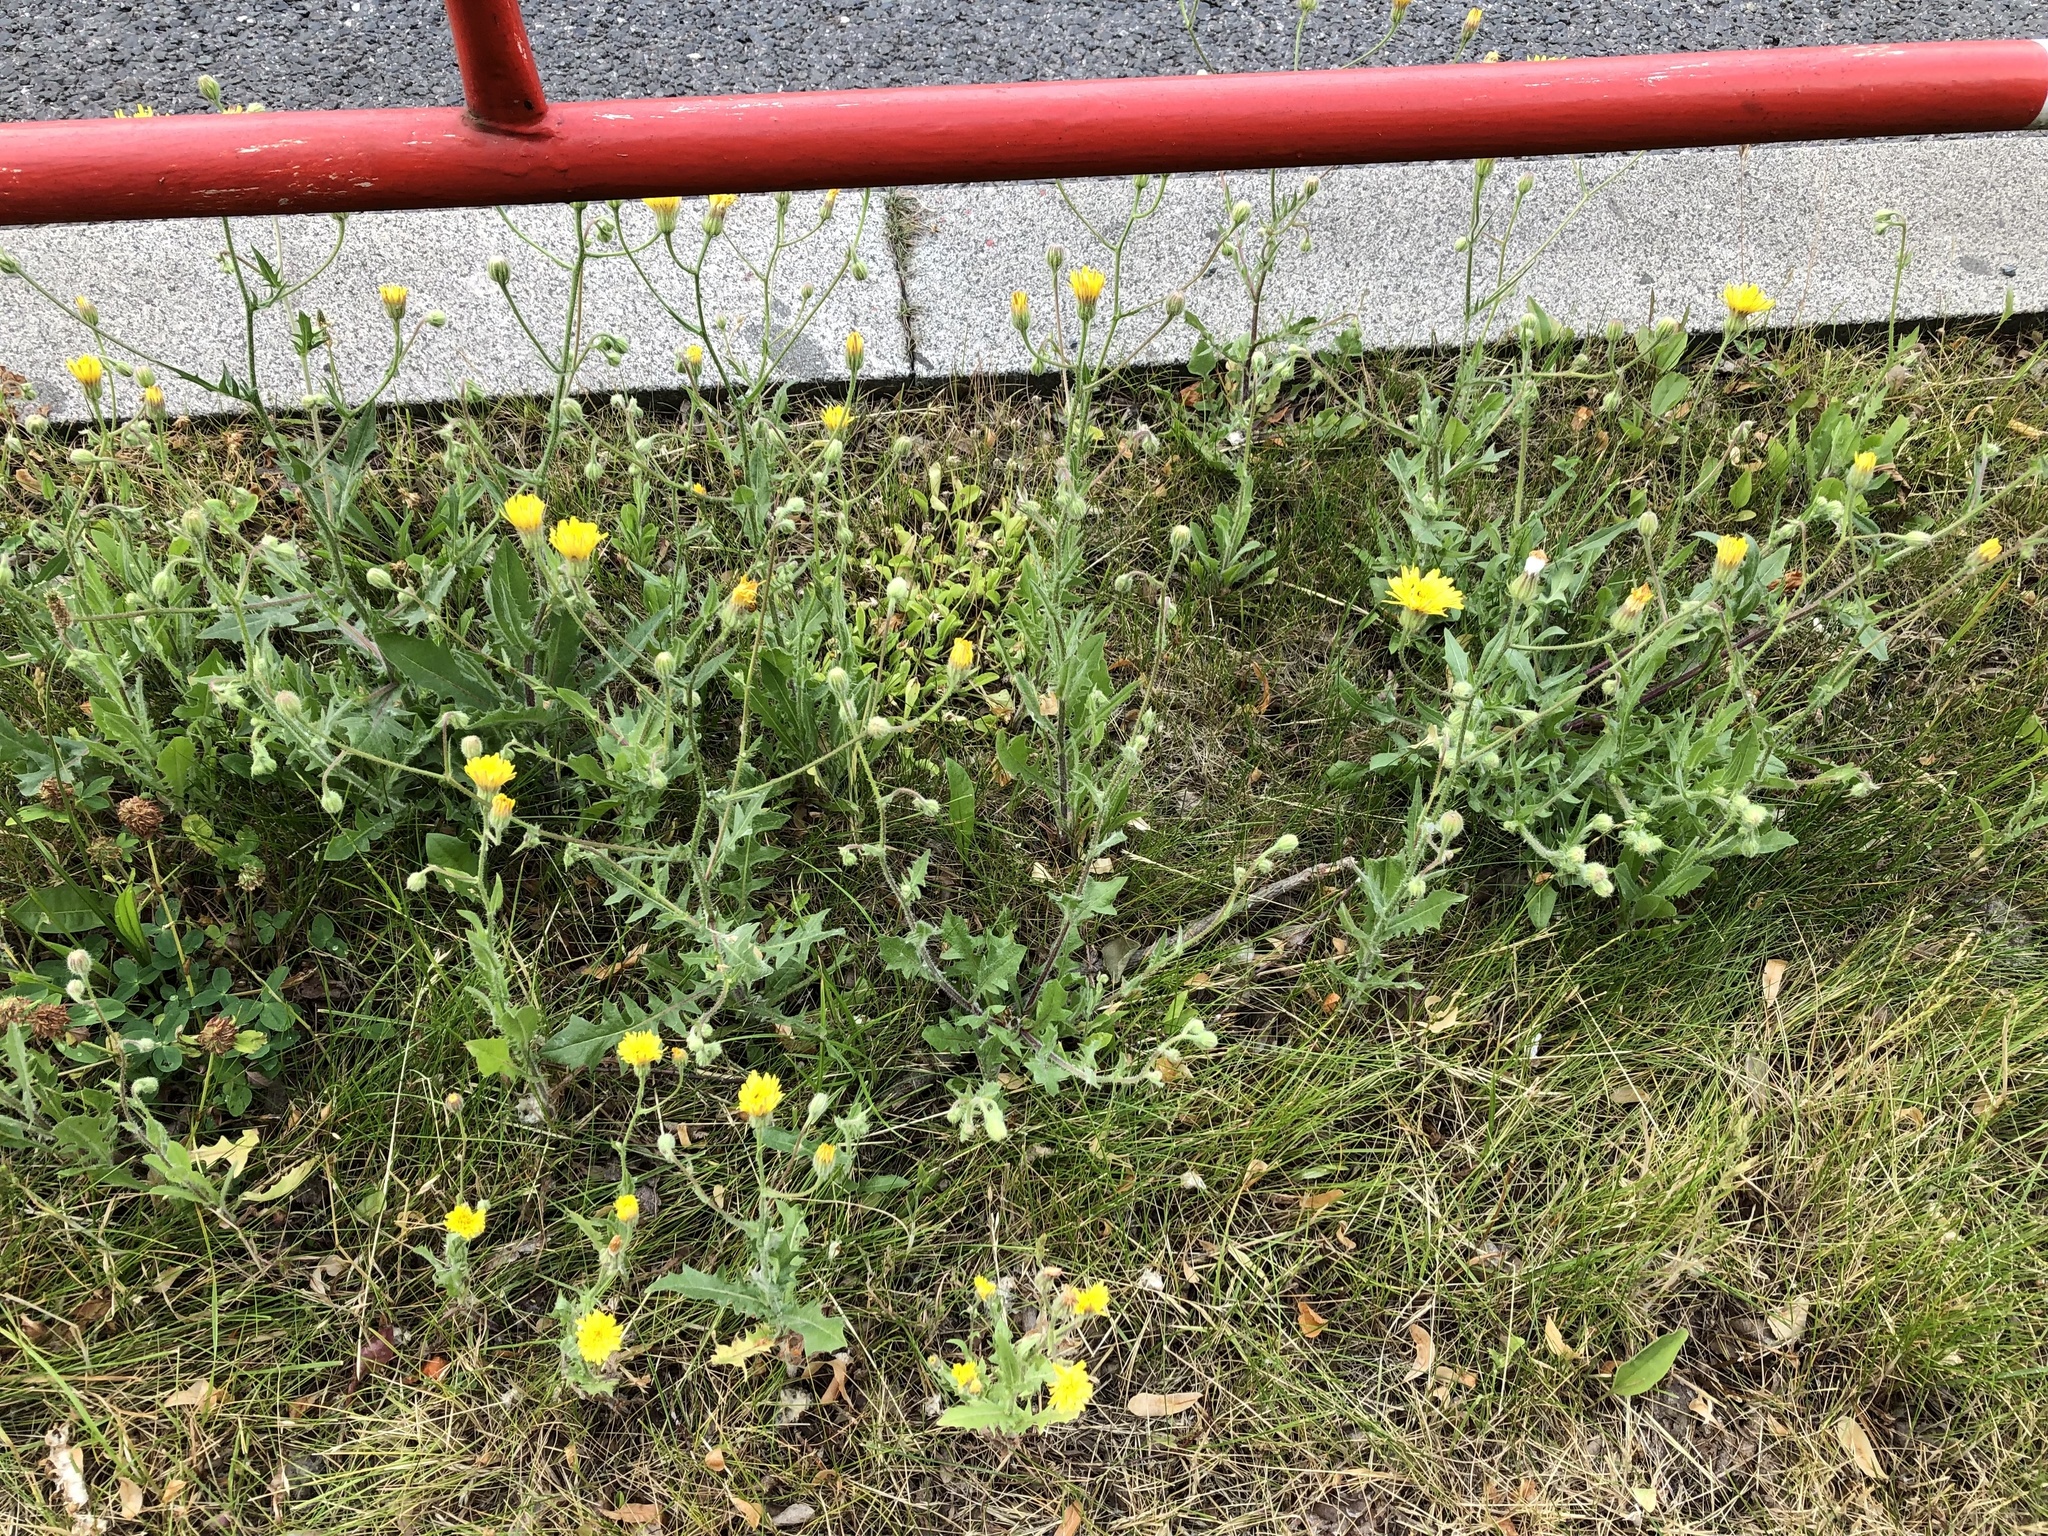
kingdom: Plantae
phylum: Tracheophyta
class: Magnoliopsida
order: Asterales
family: Asteraceae
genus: Crepis
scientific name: Crepis foetida
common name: Stinking hawk's-beard
